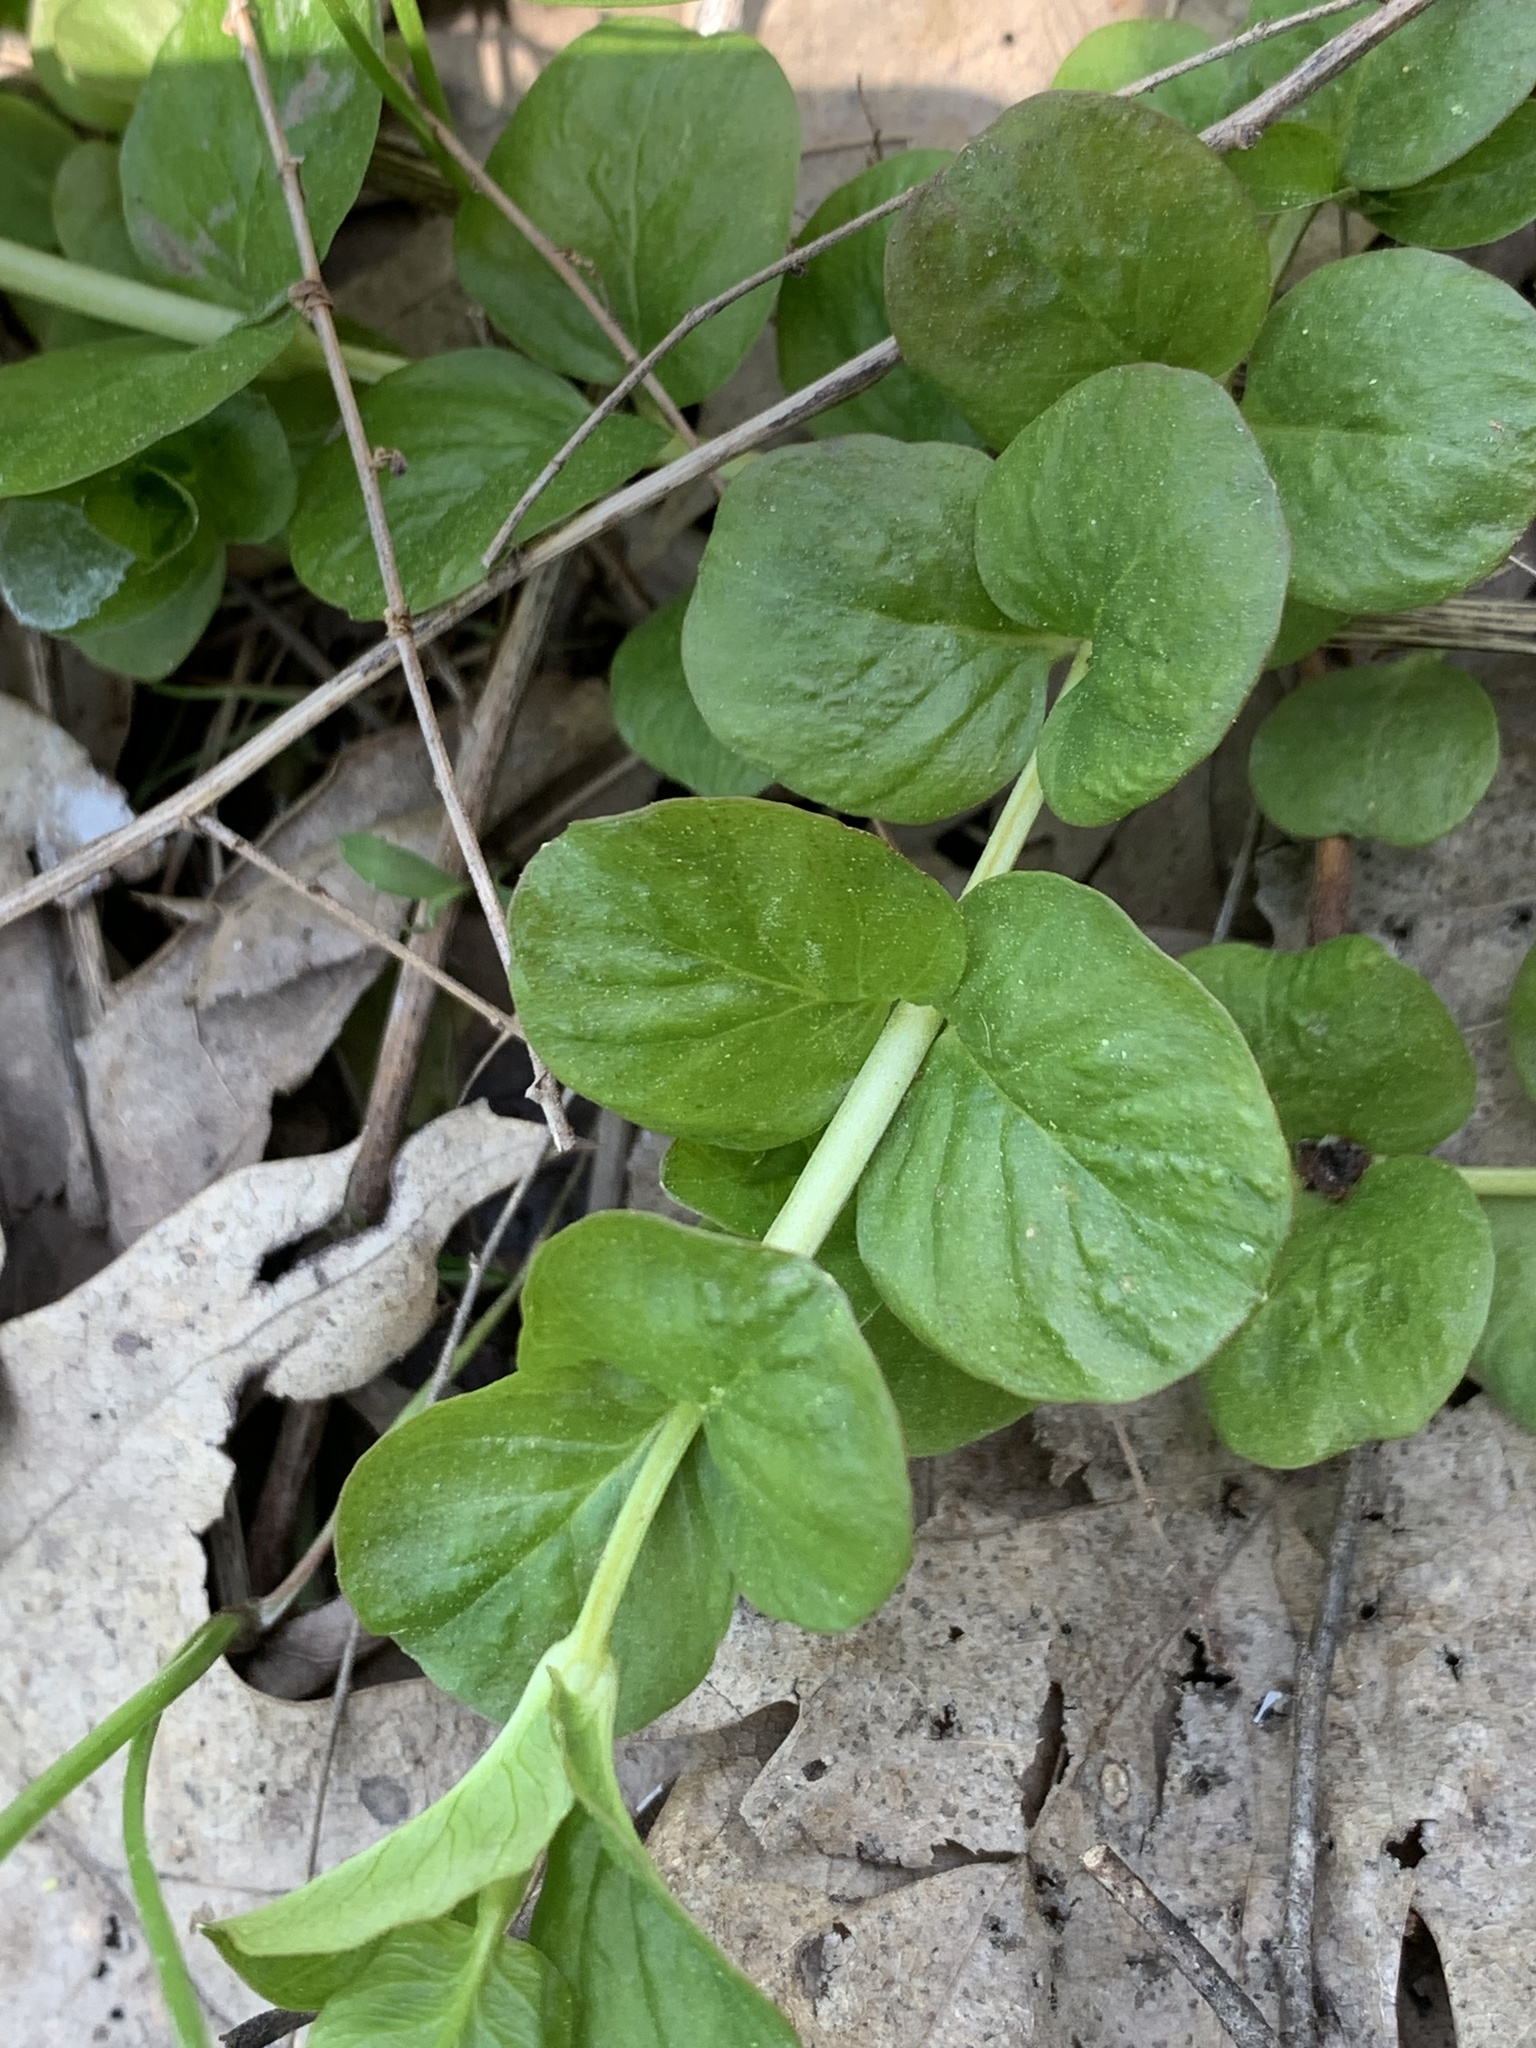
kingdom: Plantae
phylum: Tracheophyta
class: Magnoliopsida
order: Ericales
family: Primulaceae
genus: Lysimachia
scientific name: Lysimachia nummularia
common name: Moneywort
